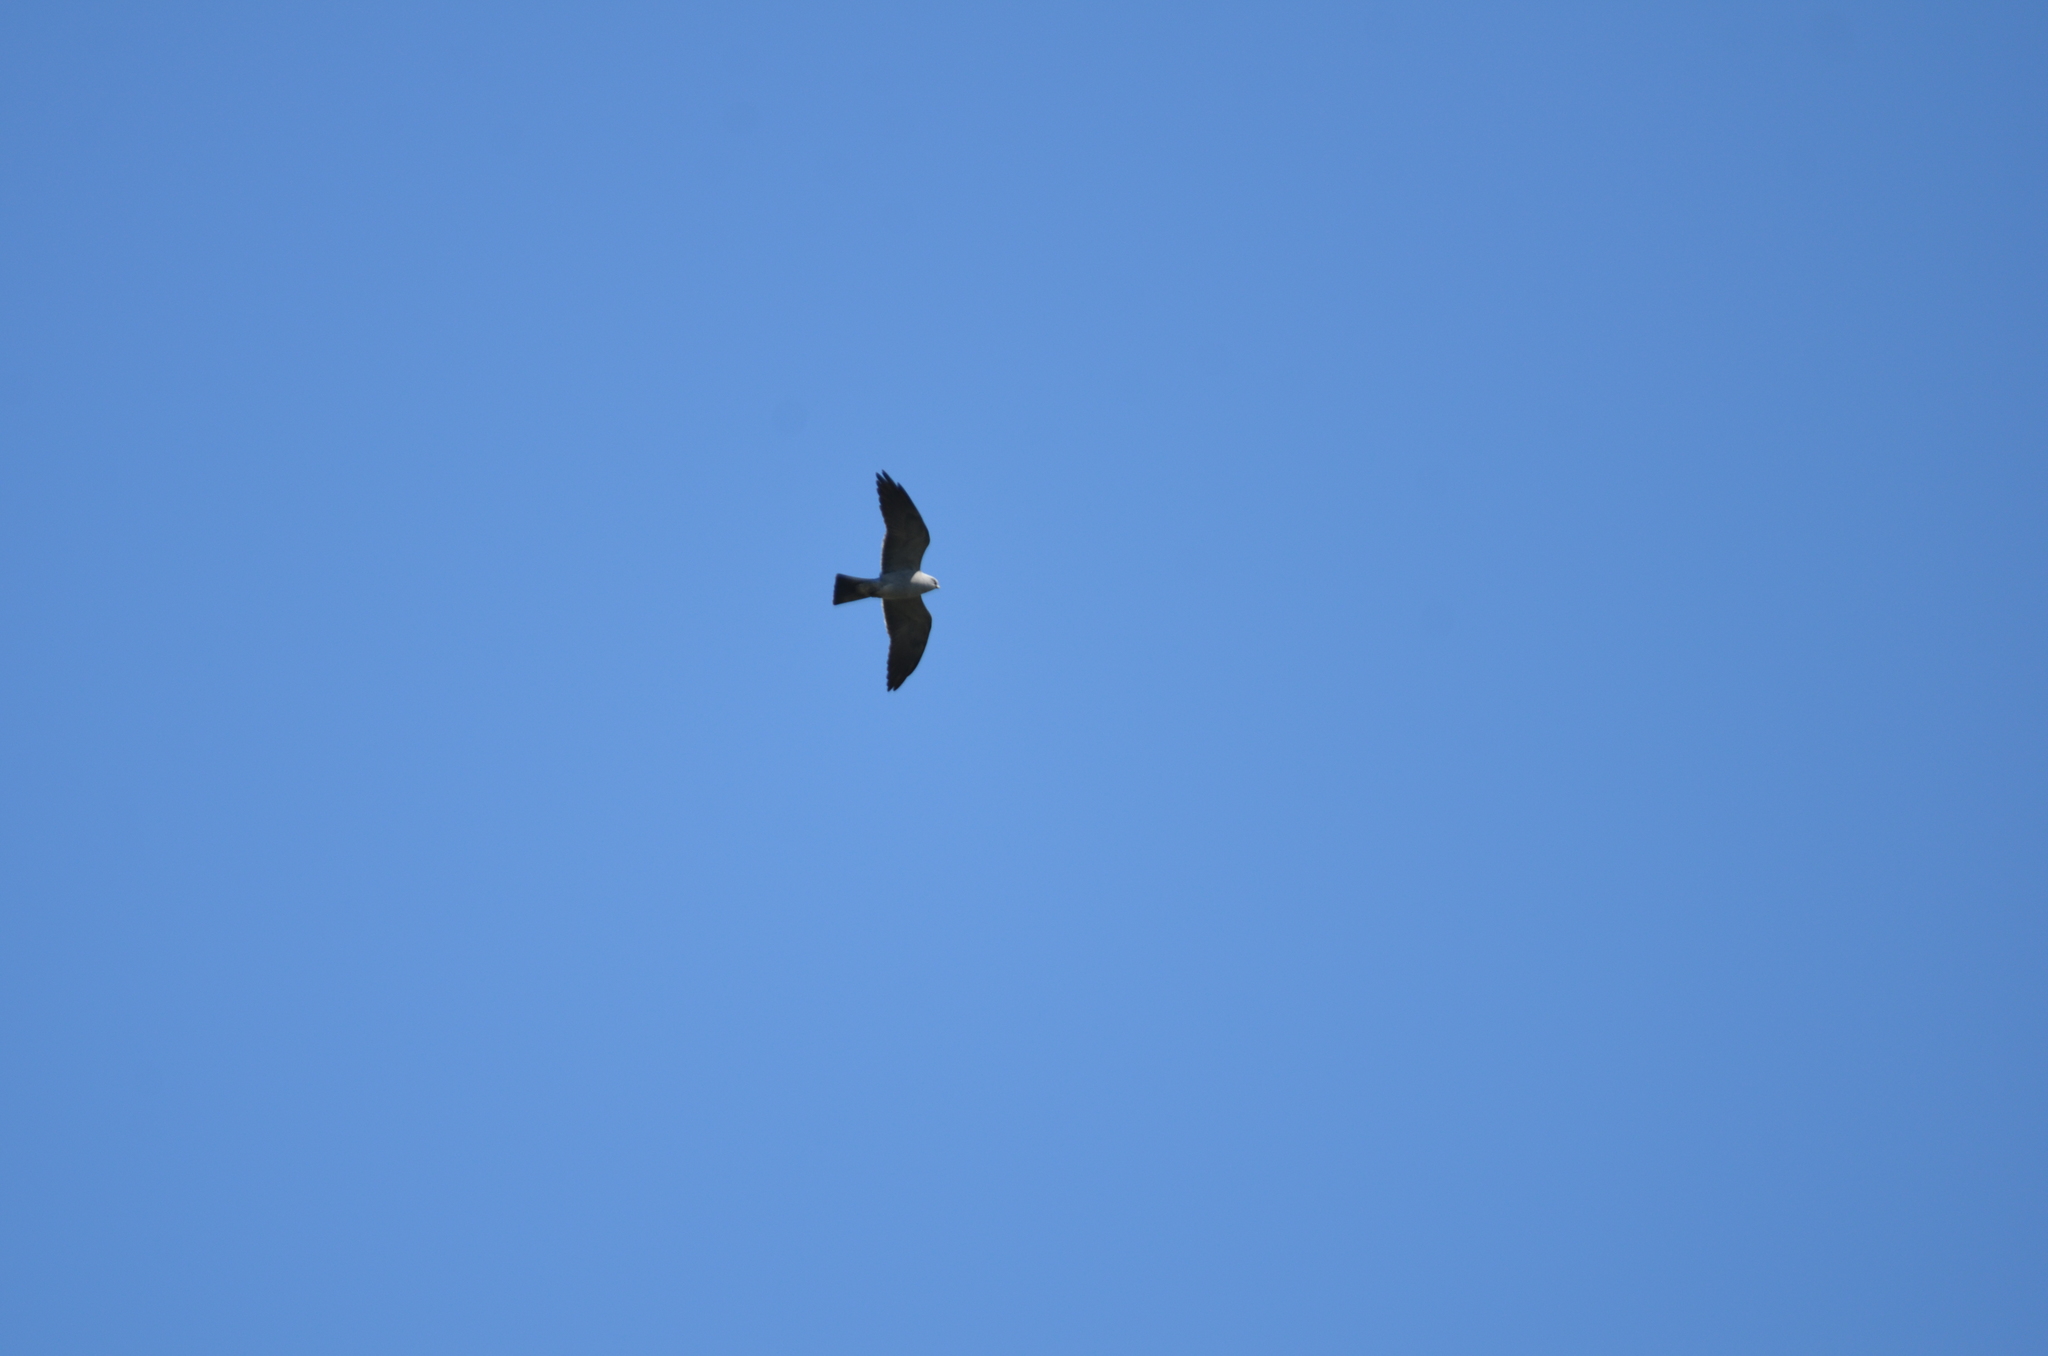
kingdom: Animalia
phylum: Chordata
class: Aves
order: Accipitriformes
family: Accipitridae
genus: Ictinia
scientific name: Ictinia mississippiensis
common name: Mississippi kite
